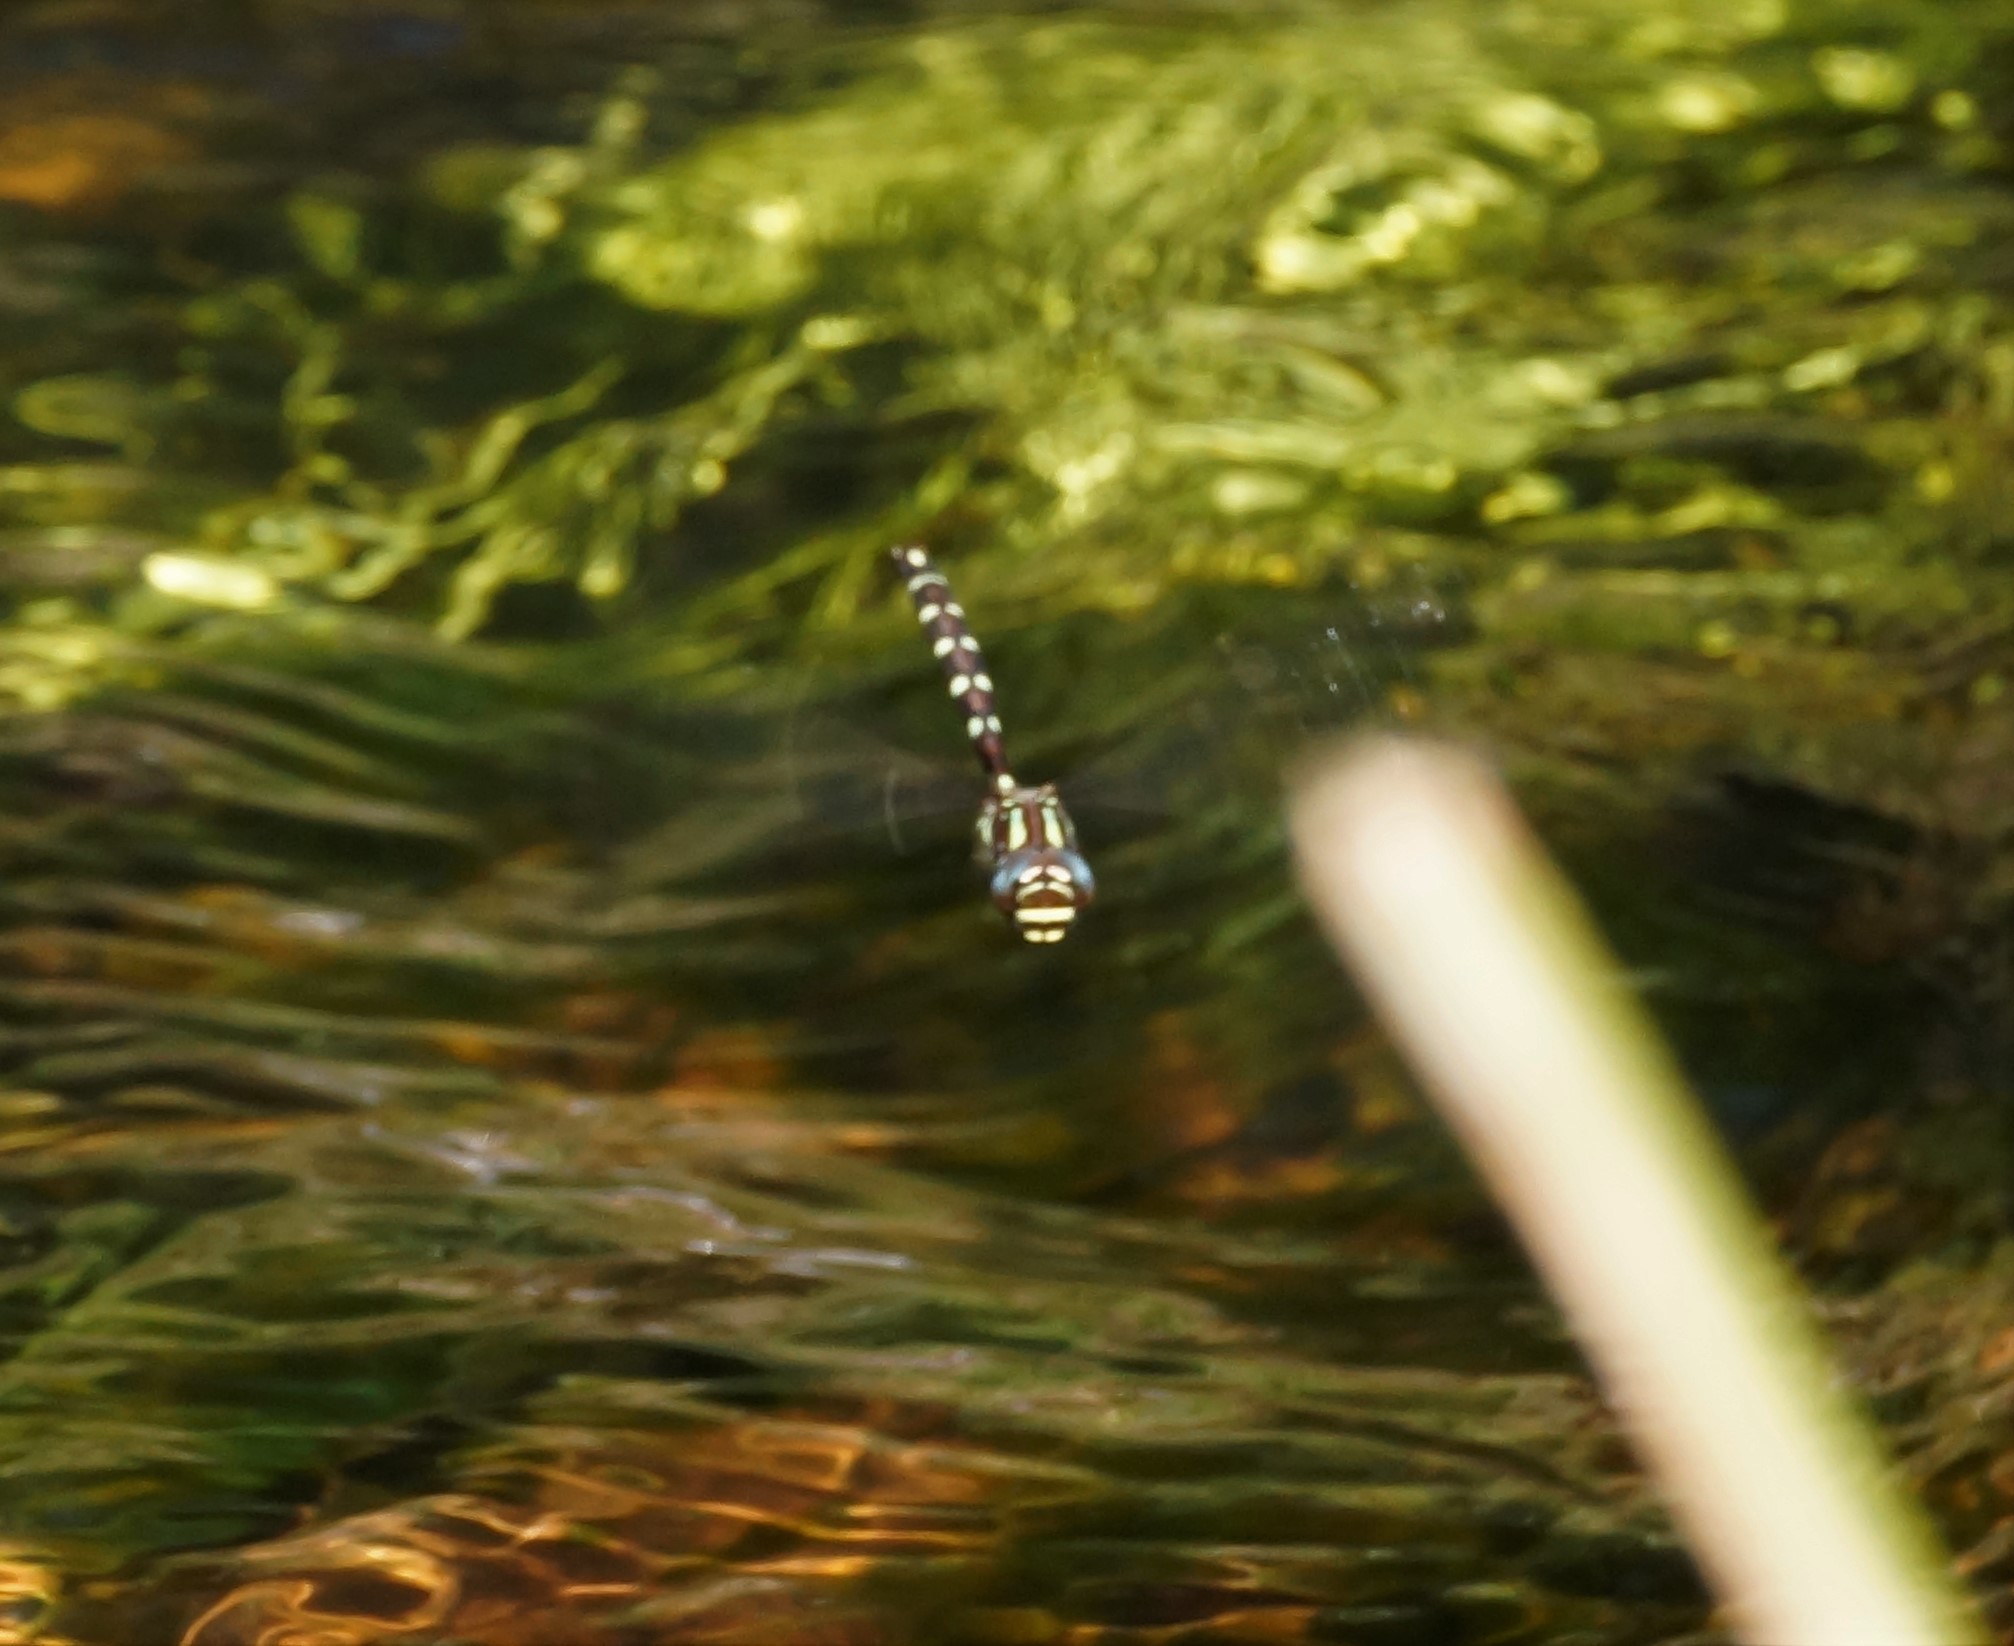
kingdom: Animalia
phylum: Arthropoda
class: Insecta
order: Odonata
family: Aeshnidae
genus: Austroaeschna
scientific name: Austroaeschna pulchra
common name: Forest darner
